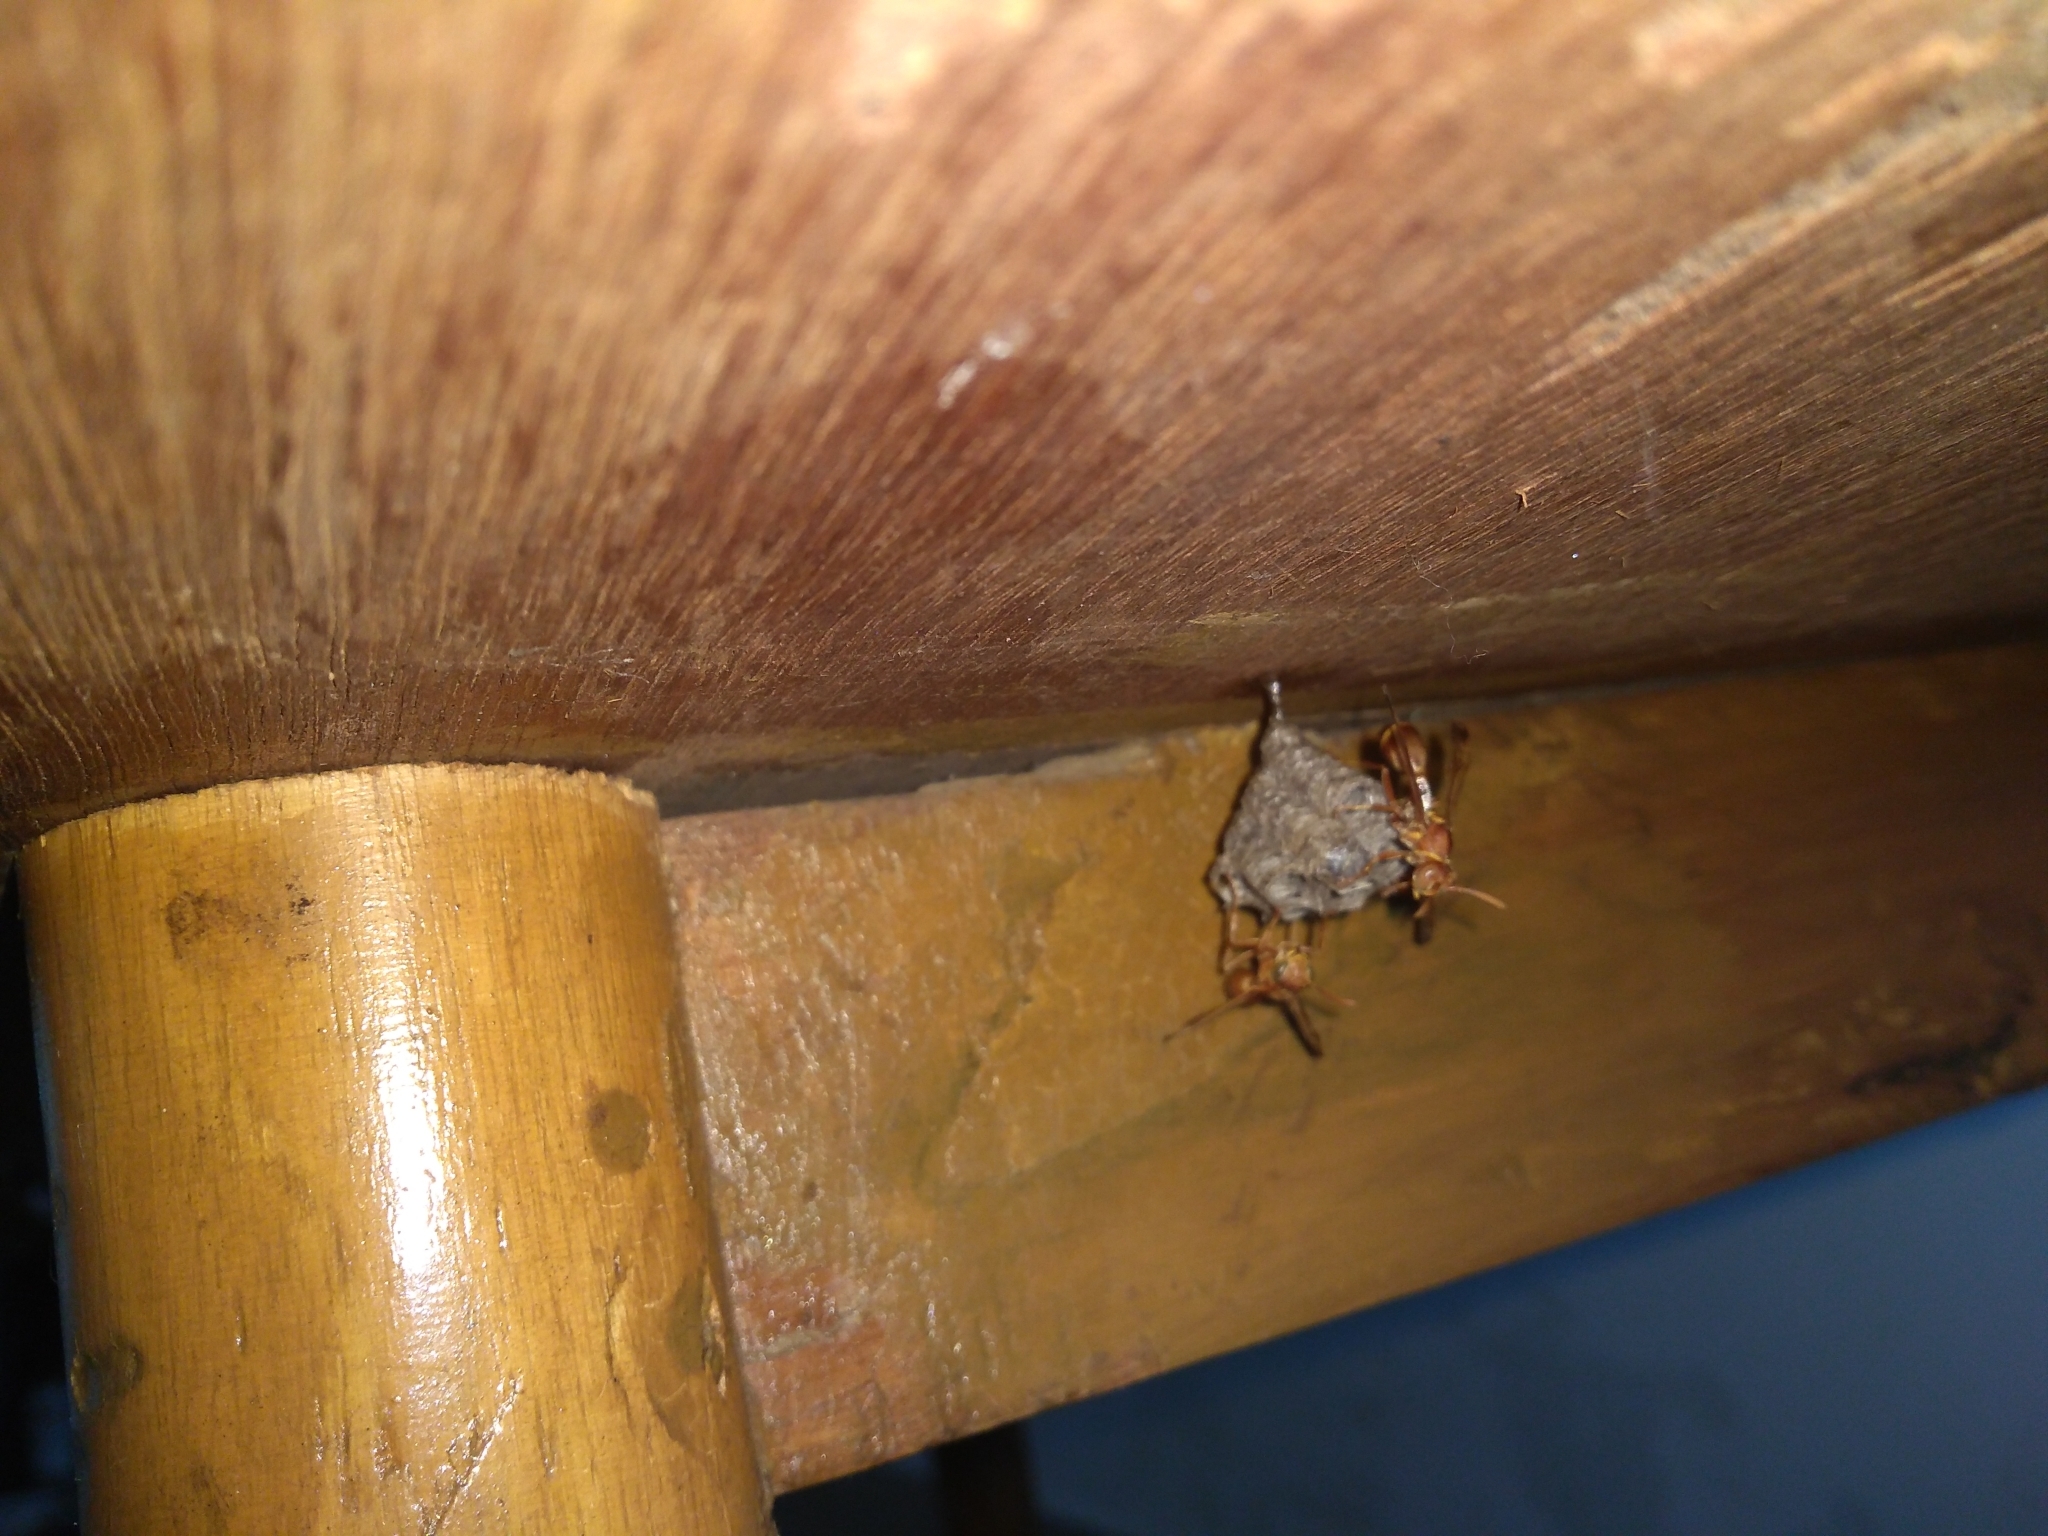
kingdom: Animalia
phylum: Arthropoda
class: Insecta
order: Hymenoptera
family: Vespidae
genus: Ropalidia
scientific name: Ropalidia marginata
